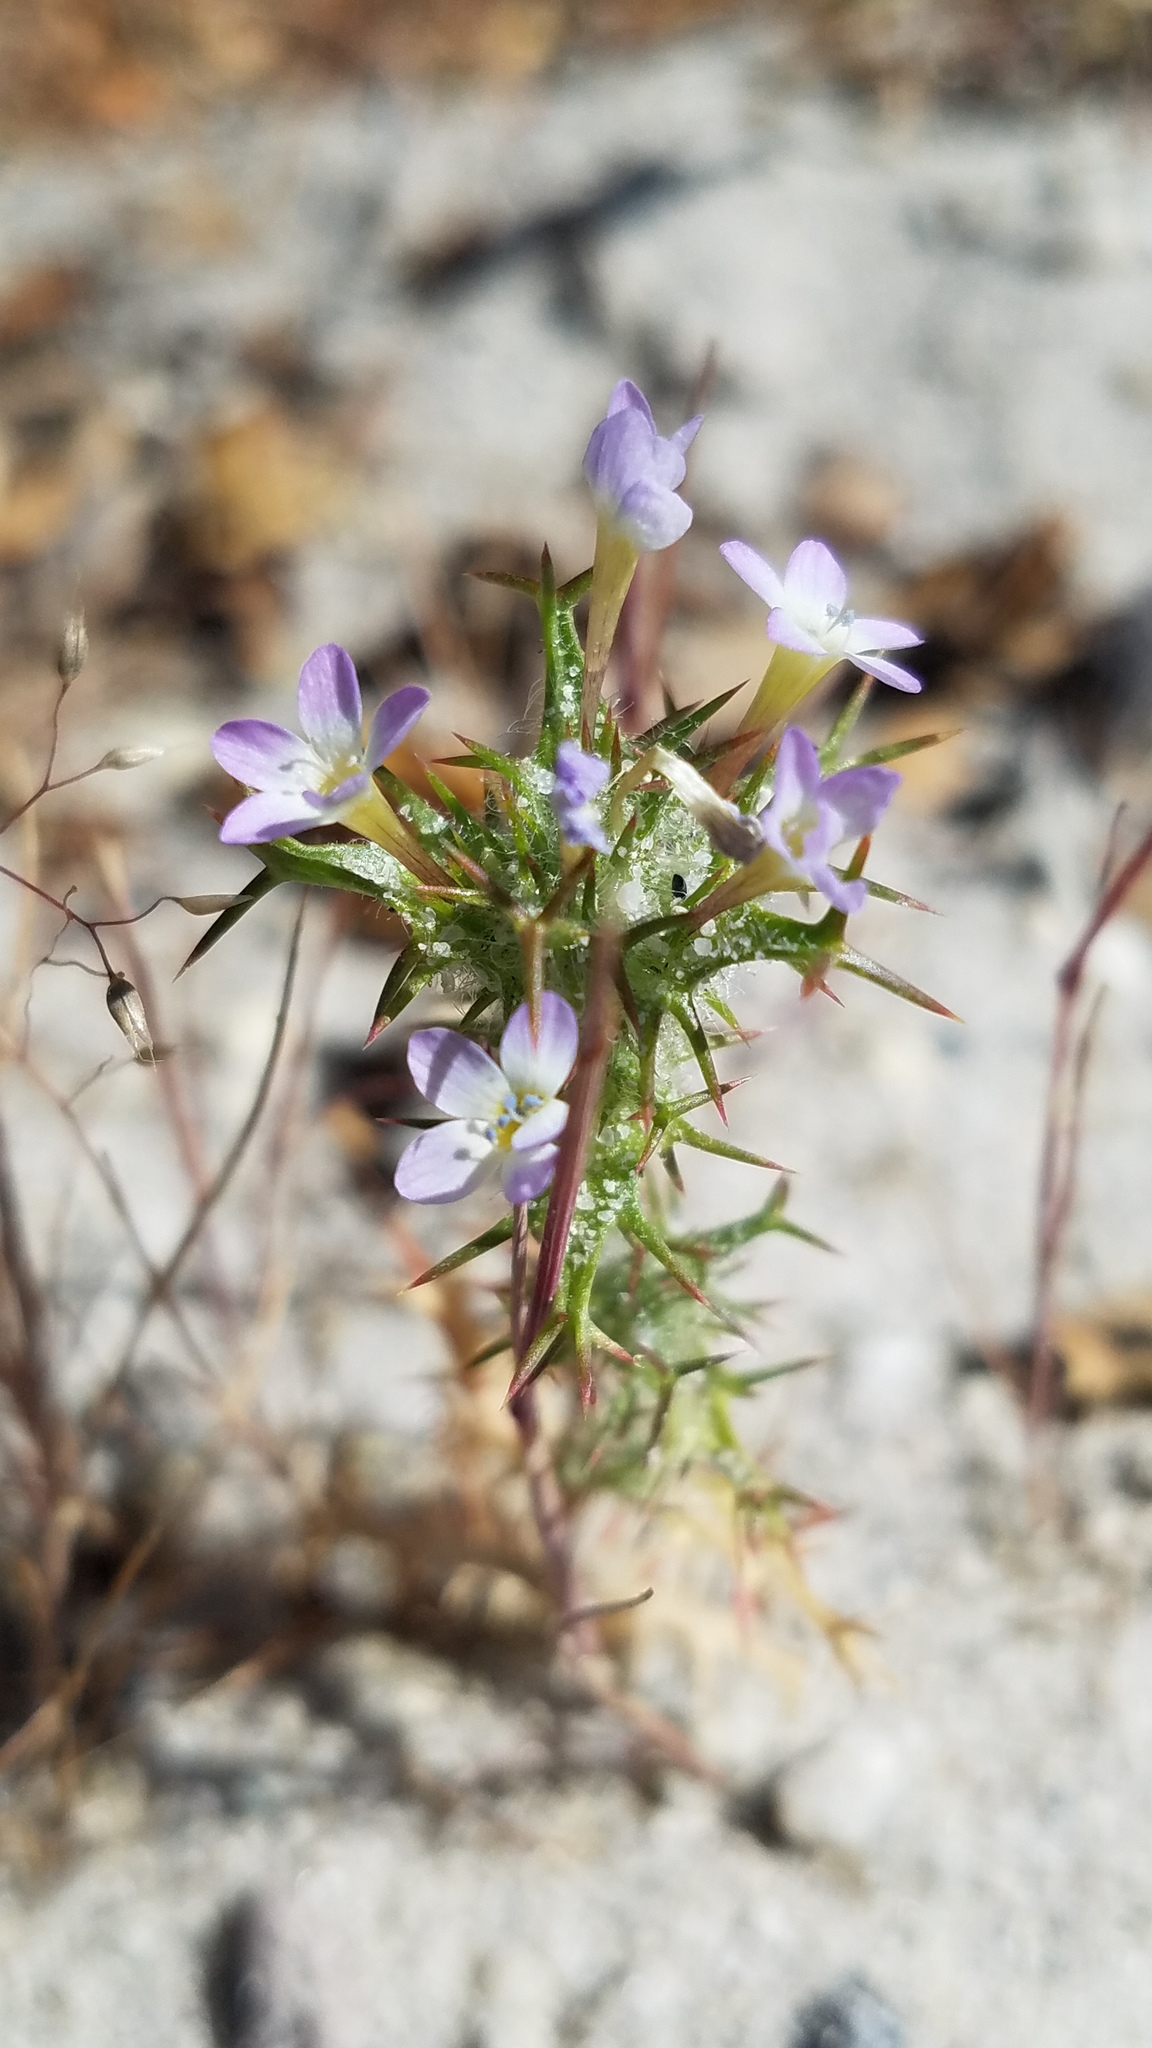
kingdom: Plantae
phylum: Tracheophyta
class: Magnoliopsida
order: Ericales
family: Polemoniaceae
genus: Navarretia
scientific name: Navarretia hamata
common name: Hooked navarretia
